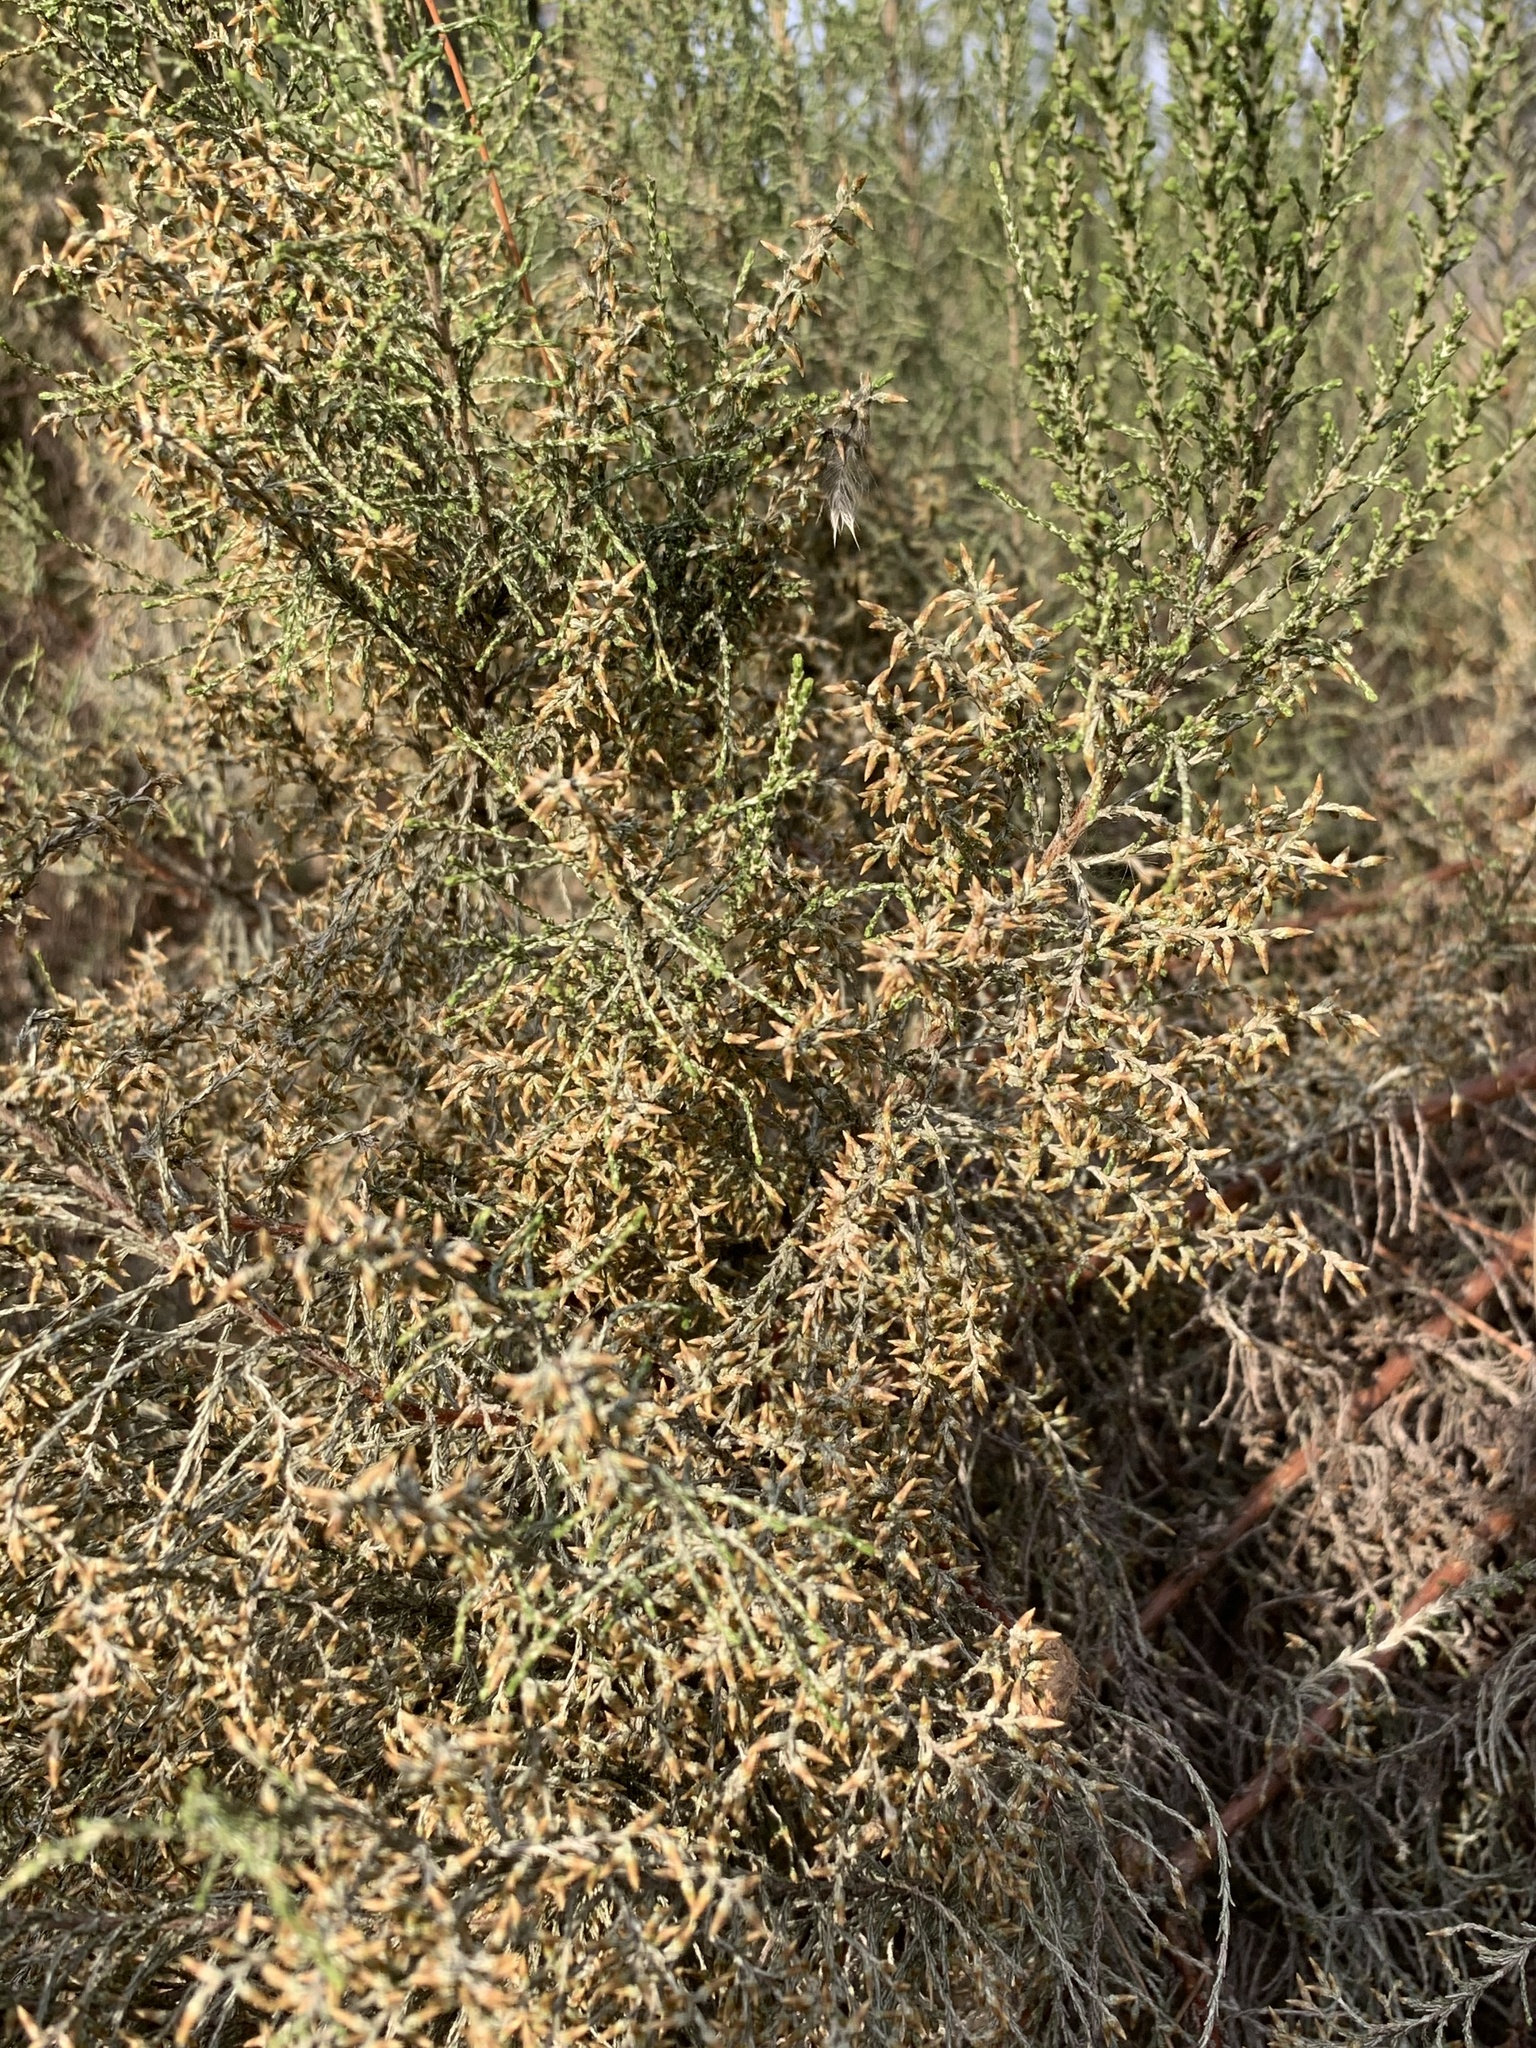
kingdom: Plantae
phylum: Tracheophyta
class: Magnoliopsida
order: Asterales
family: Asteraceae
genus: Dicerothamnus
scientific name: Dicerothamnus rhinocerotis
